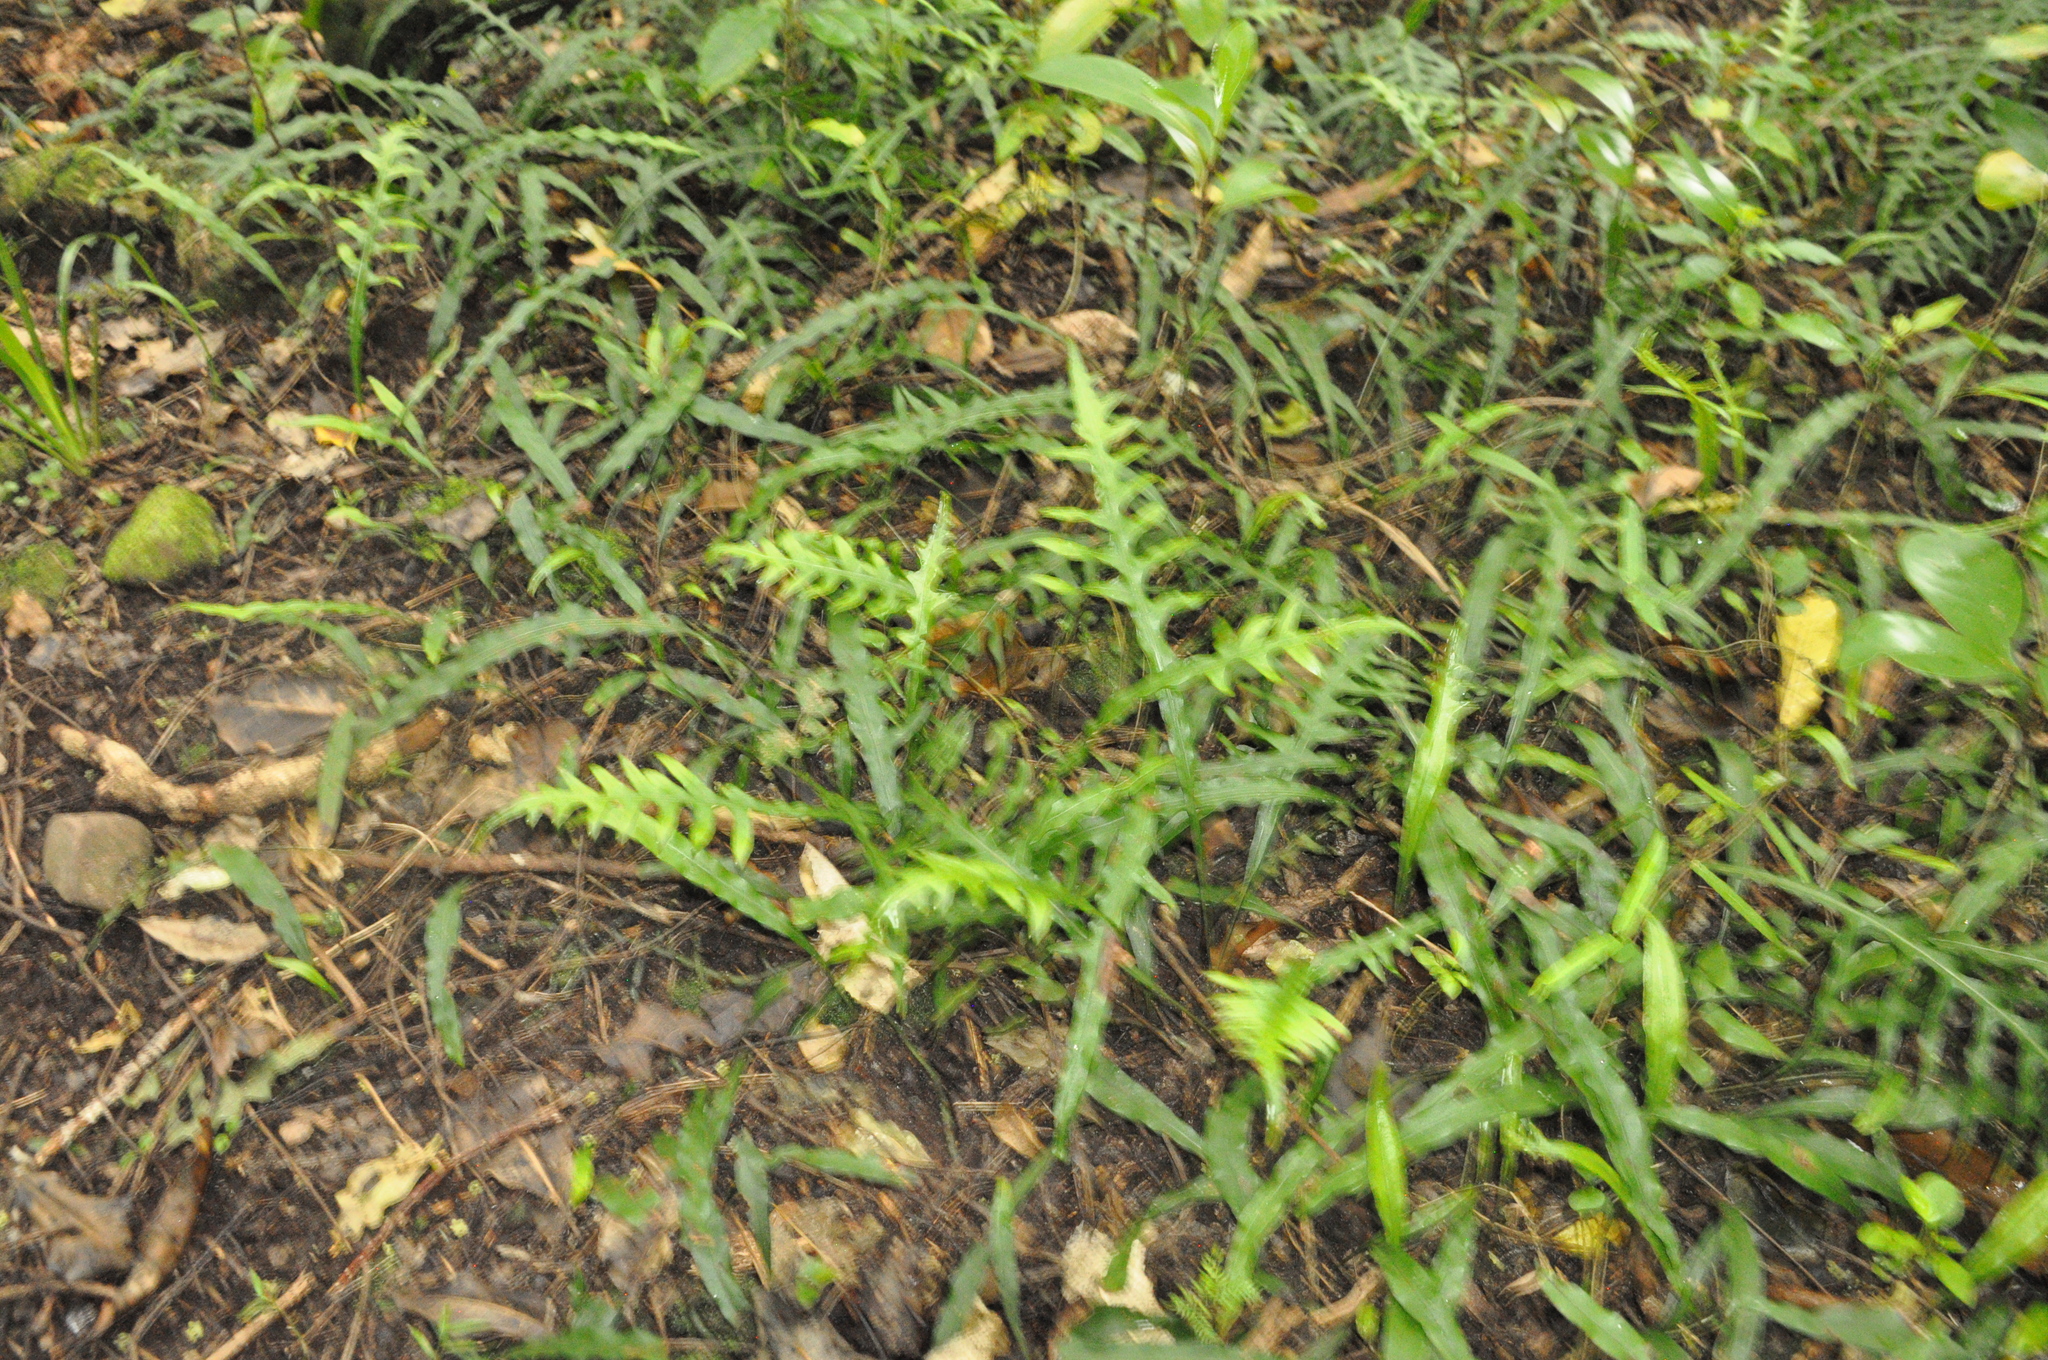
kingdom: Plantae
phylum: Tracheophyta
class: Polypodiopsida
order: Polypodiales
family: Polypodiaceae
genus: Lecanopteris
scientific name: Lecanopteris scandens
